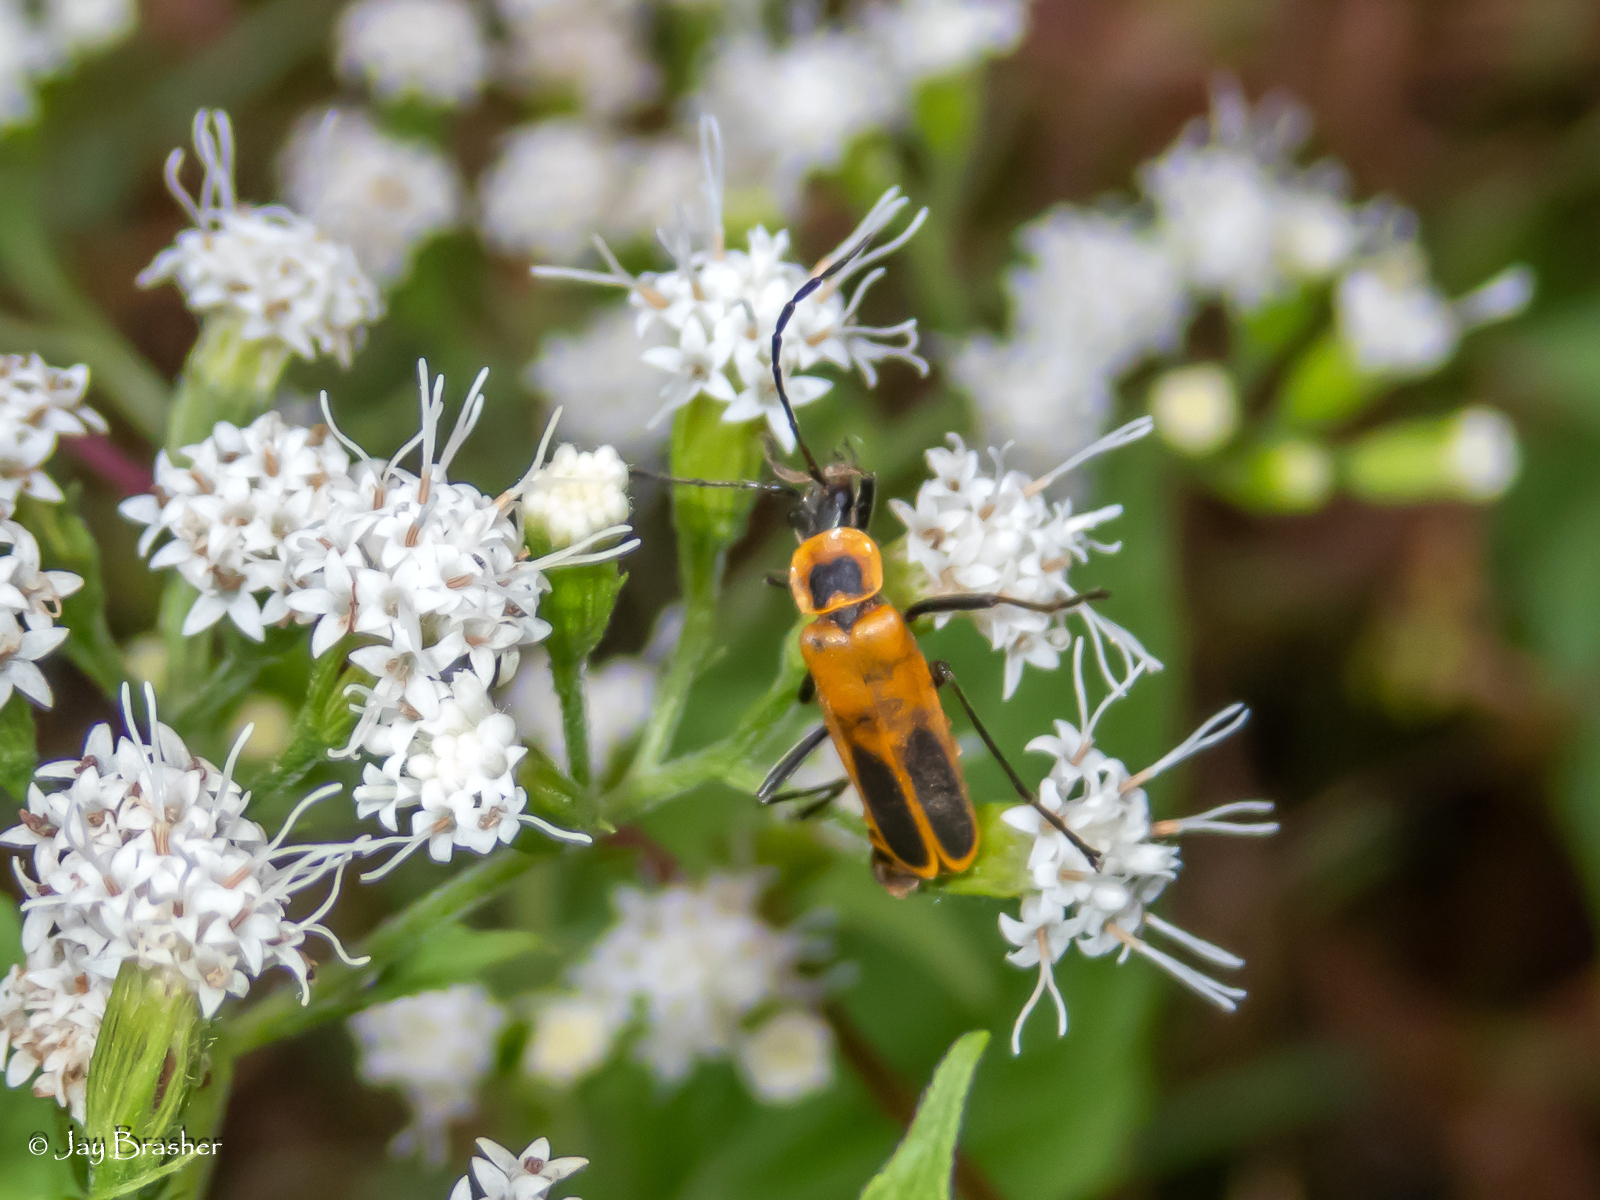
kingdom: Animalia
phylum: Arthropoda
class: Insecta
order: Coleoptera
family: Cantharidae
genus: Chauliognathus
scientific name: Chauliognathus pensylvanicus
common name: Goldenrod soldier beetle
